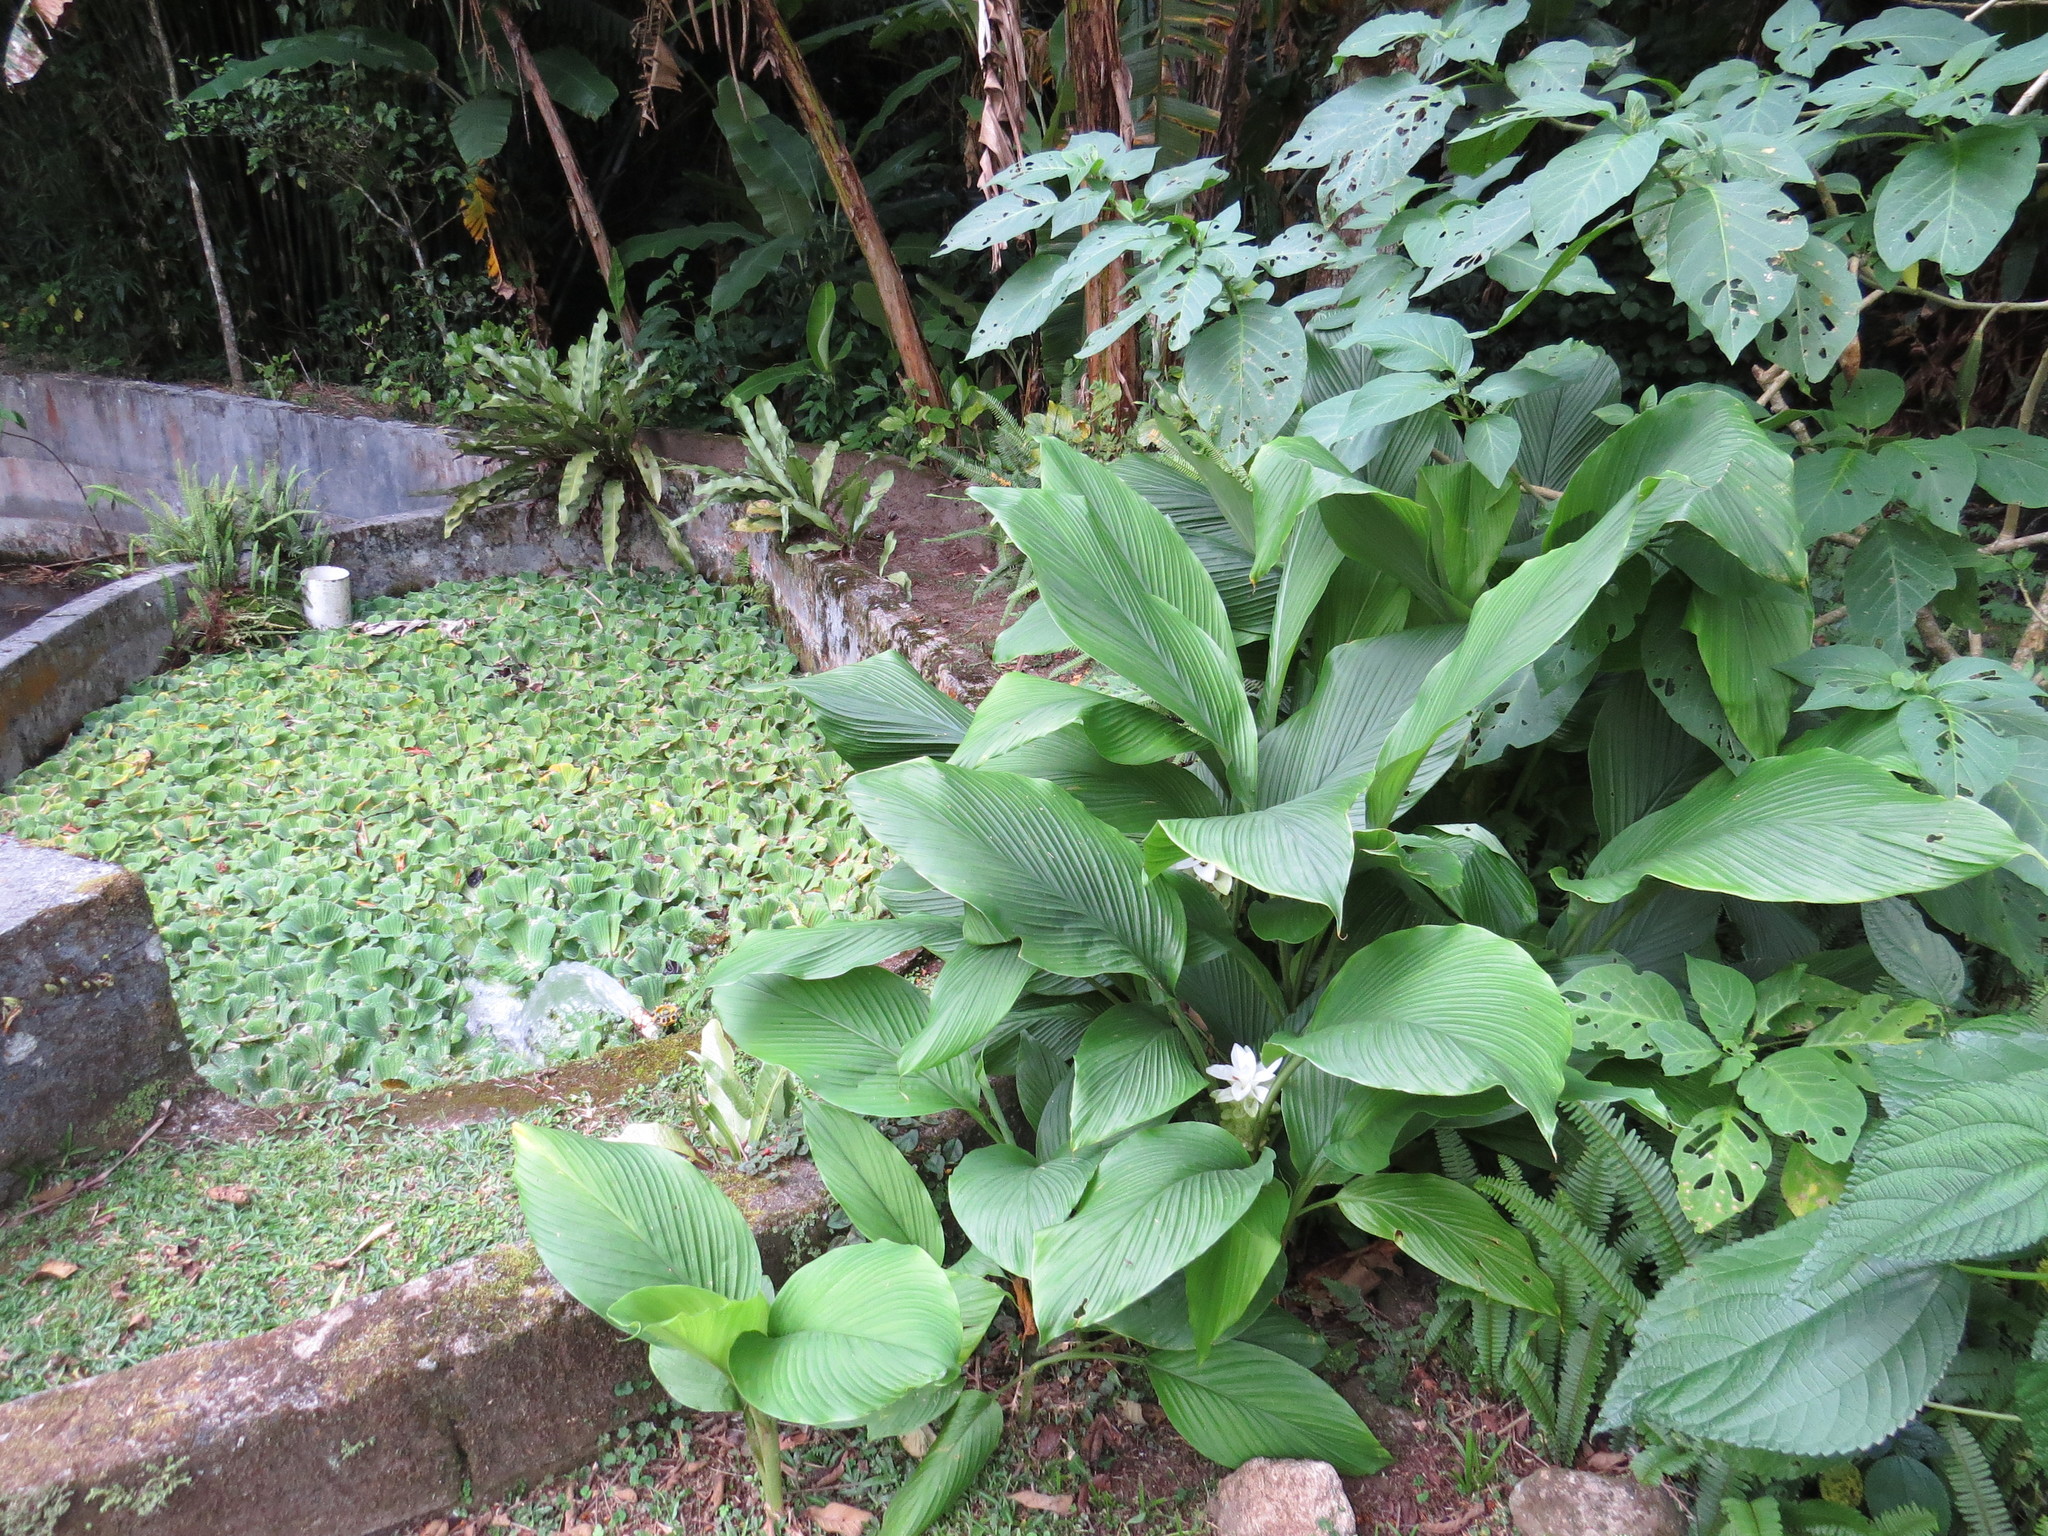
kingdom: Plantae
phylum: Tracheophyta
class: Liliopsida
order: Zingiberales
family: Zingiberaceae
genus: Curcuma
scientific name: Curcuma longa
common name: Turmeric
